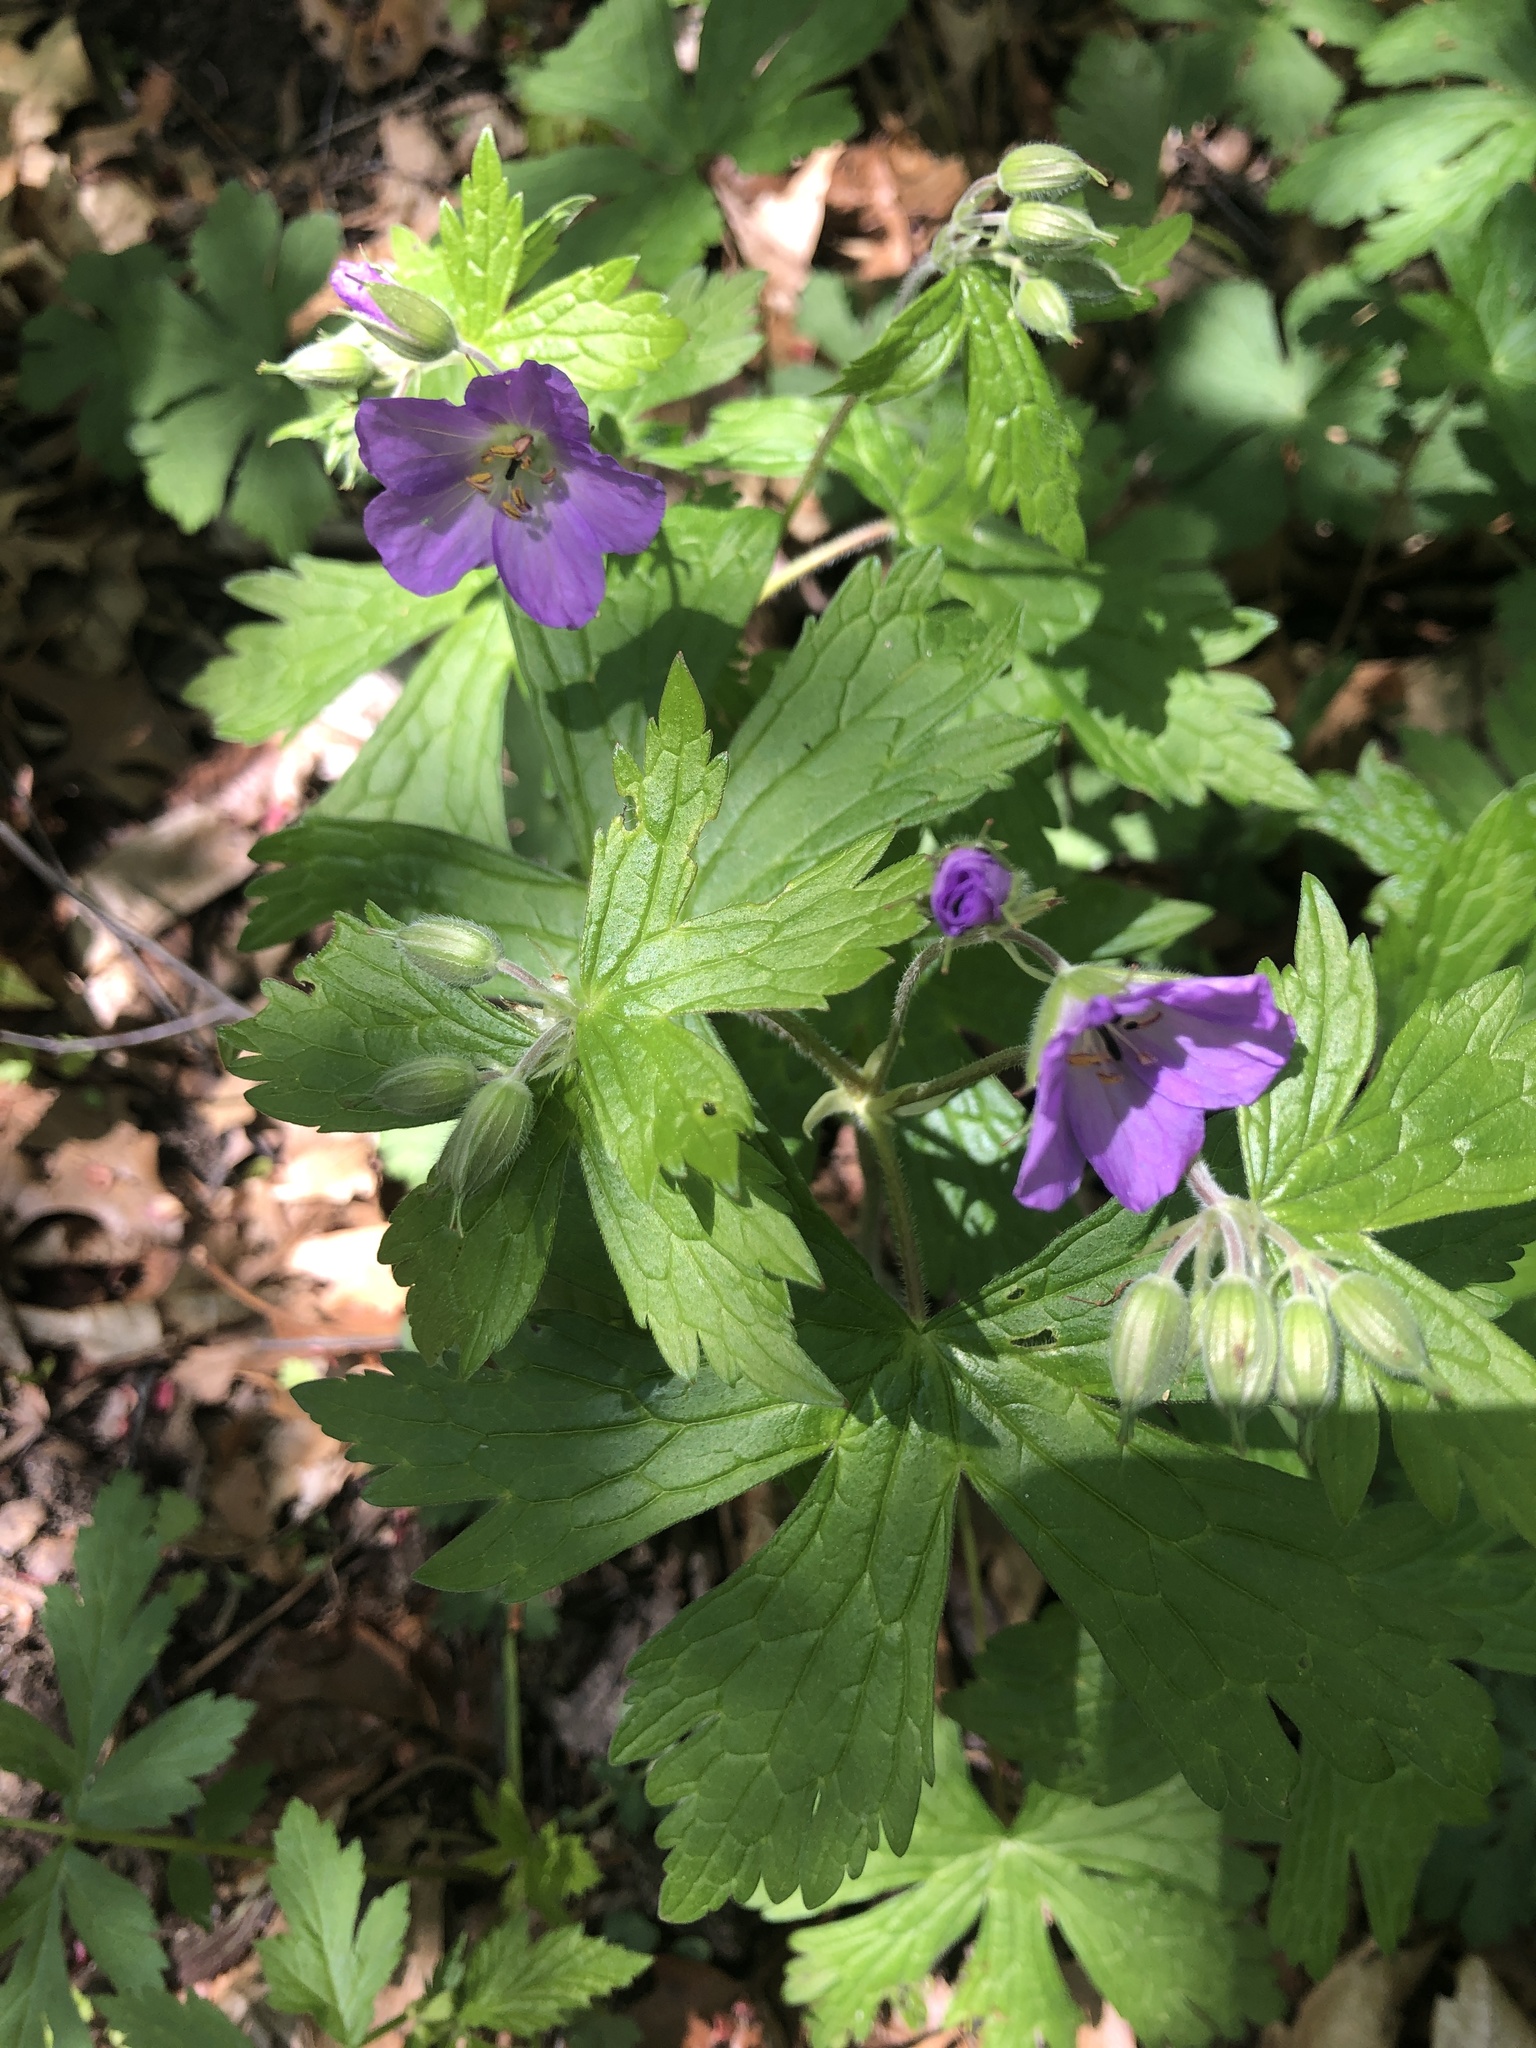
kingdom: Plantae
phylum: Tracheophyta
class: Magnoliopsida
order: Geraniales
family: Geraniaceae
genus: Geranium
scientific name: Geranium maculatum
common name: Spotted geranium
